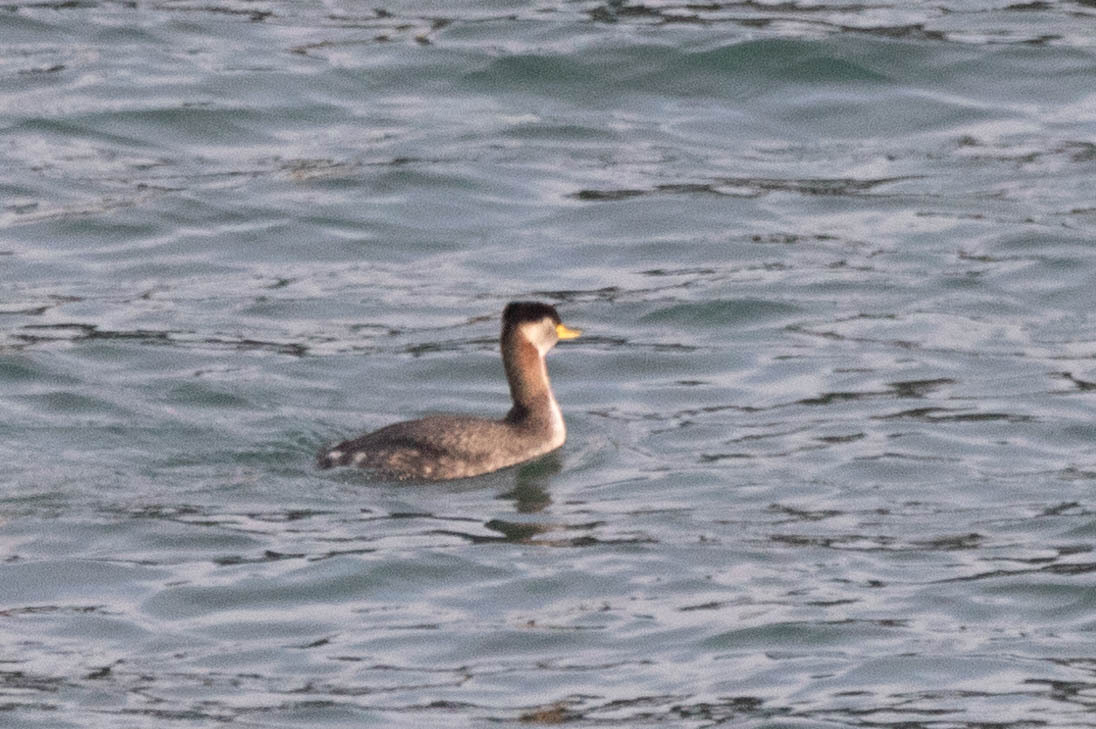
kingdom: Animalia
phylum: Chordata
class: Aves
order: Podicipediformes
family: Podicipedidae
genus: Podiceps
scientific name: Podiceps grisegena
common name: Red-necked grebe
